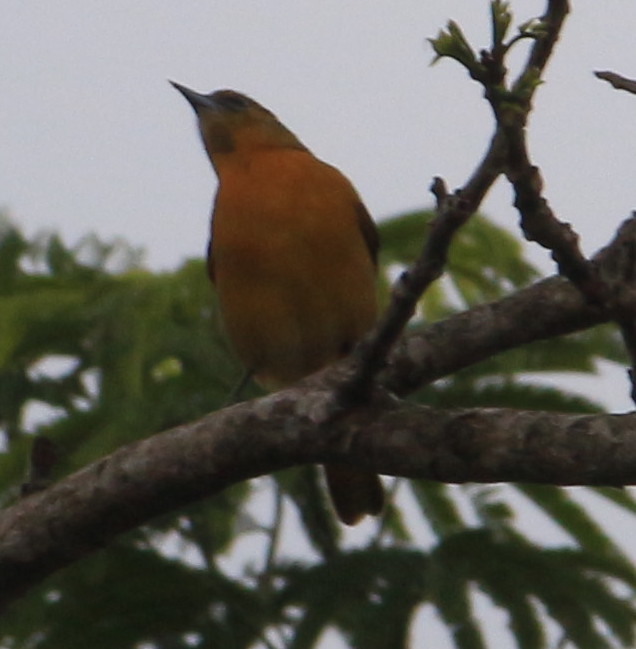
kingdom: Animalia
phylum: Chordata
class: Aves
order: Passeriformes
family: Icteridae
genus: Icterus
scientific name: Icterus galbula
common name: Baltimore oriole
